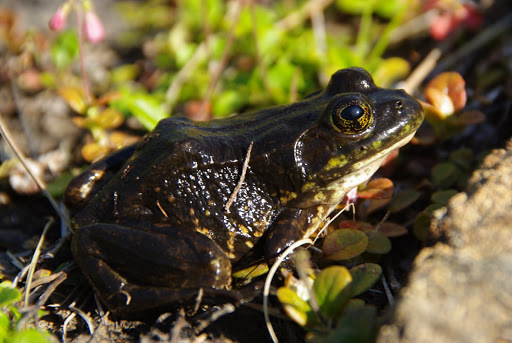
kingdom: Animalia
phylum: Chordata
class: Amphibia
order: Anura
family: Ranidae
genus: Lithobates
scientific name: Lithobates septentrionalis
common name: Mink frog
